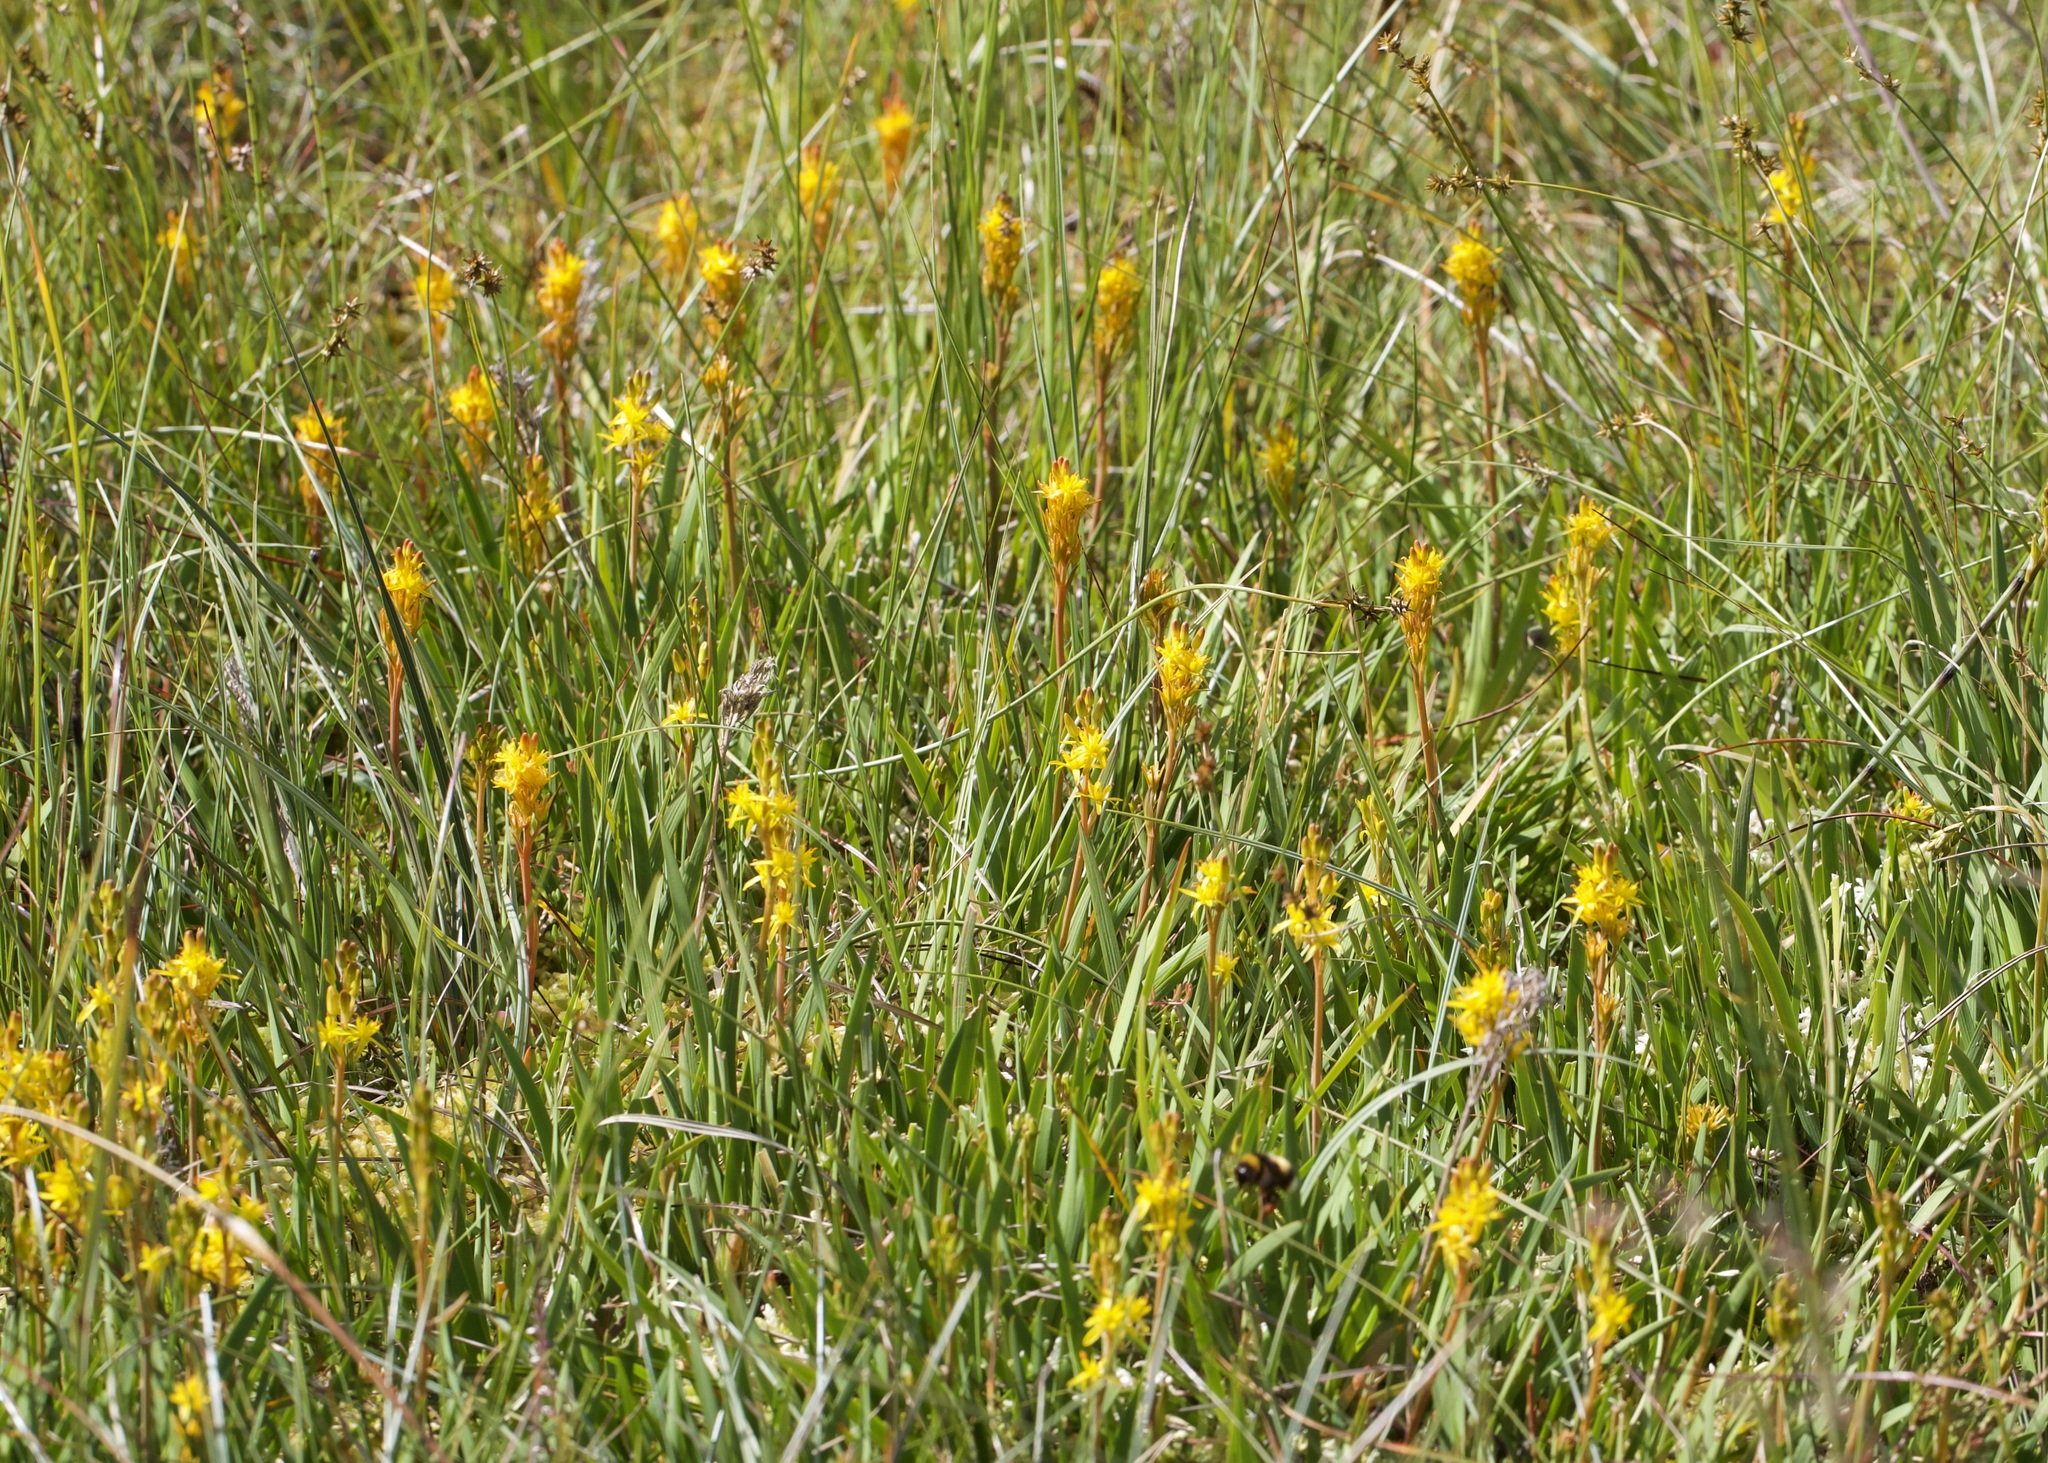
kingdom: Plantae
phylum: Tracheophyta
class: Liliopsida
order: Dioscoreales
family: Nartheciaceae
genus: Narthecium
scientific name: Narthecium ossifragum
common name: Bog asphodel
